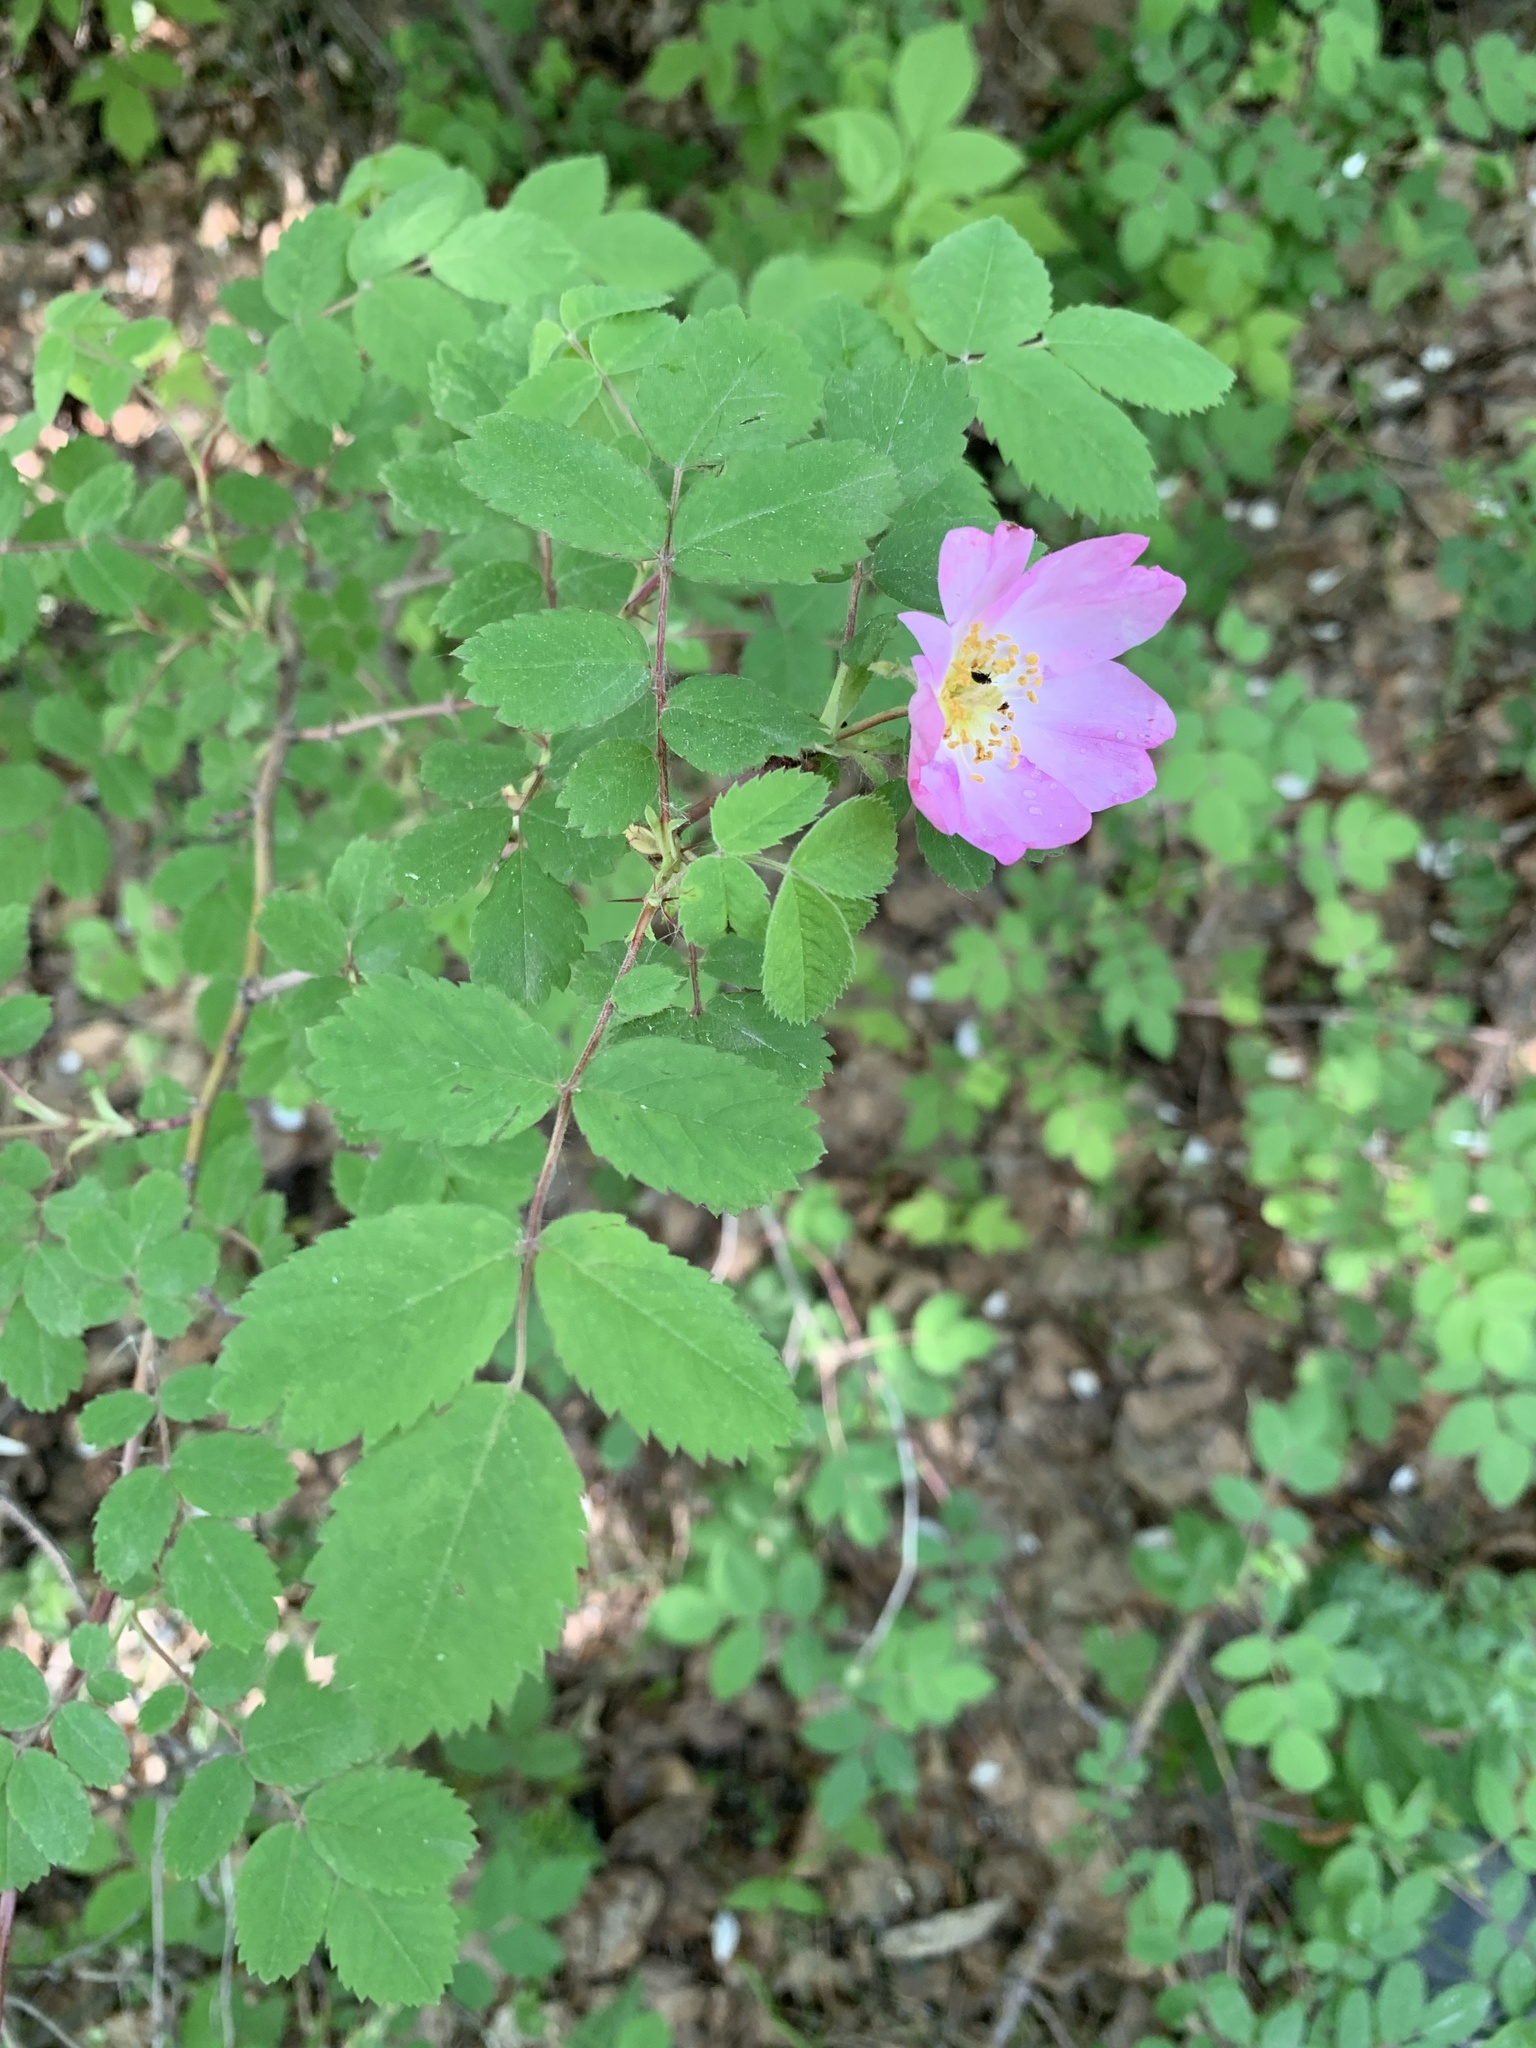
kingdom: Plantae
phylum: Tracheophyta
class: Magnoliopsida
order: Rosales
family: Rosaceae
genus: Rosa
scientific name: Rosa acicularis
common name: Prickly rose
